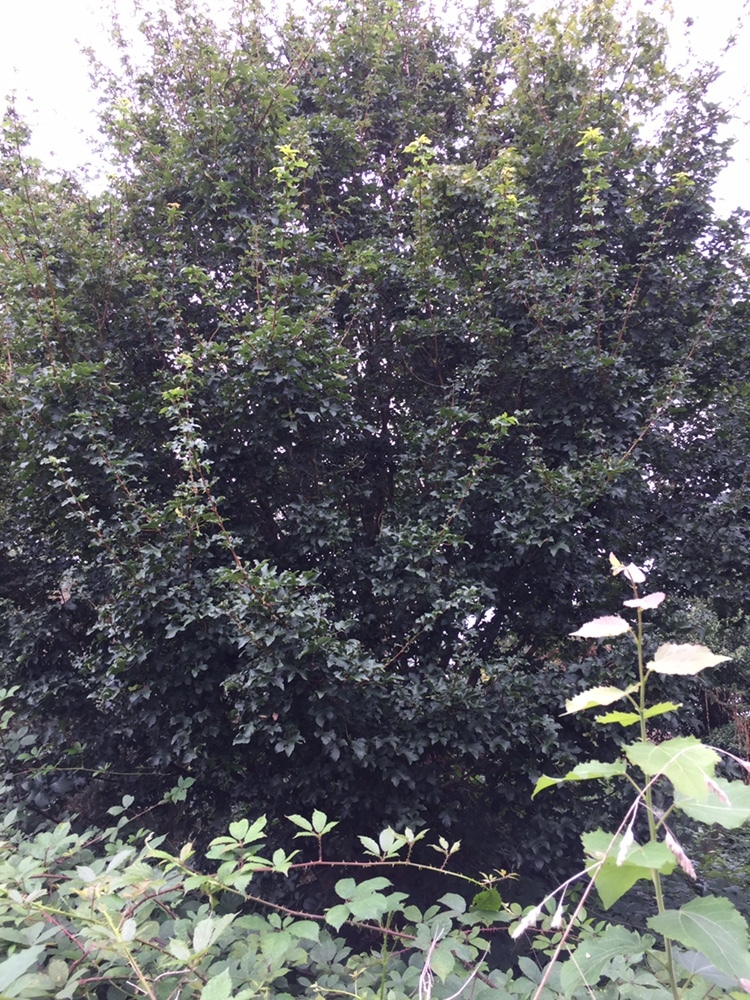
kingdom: Plantae
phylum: Tracheophyta
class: Magnoliopsida
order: Sapindales
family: Sapindaceae
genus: Acer
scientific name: Acer campestre
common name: Field maple
